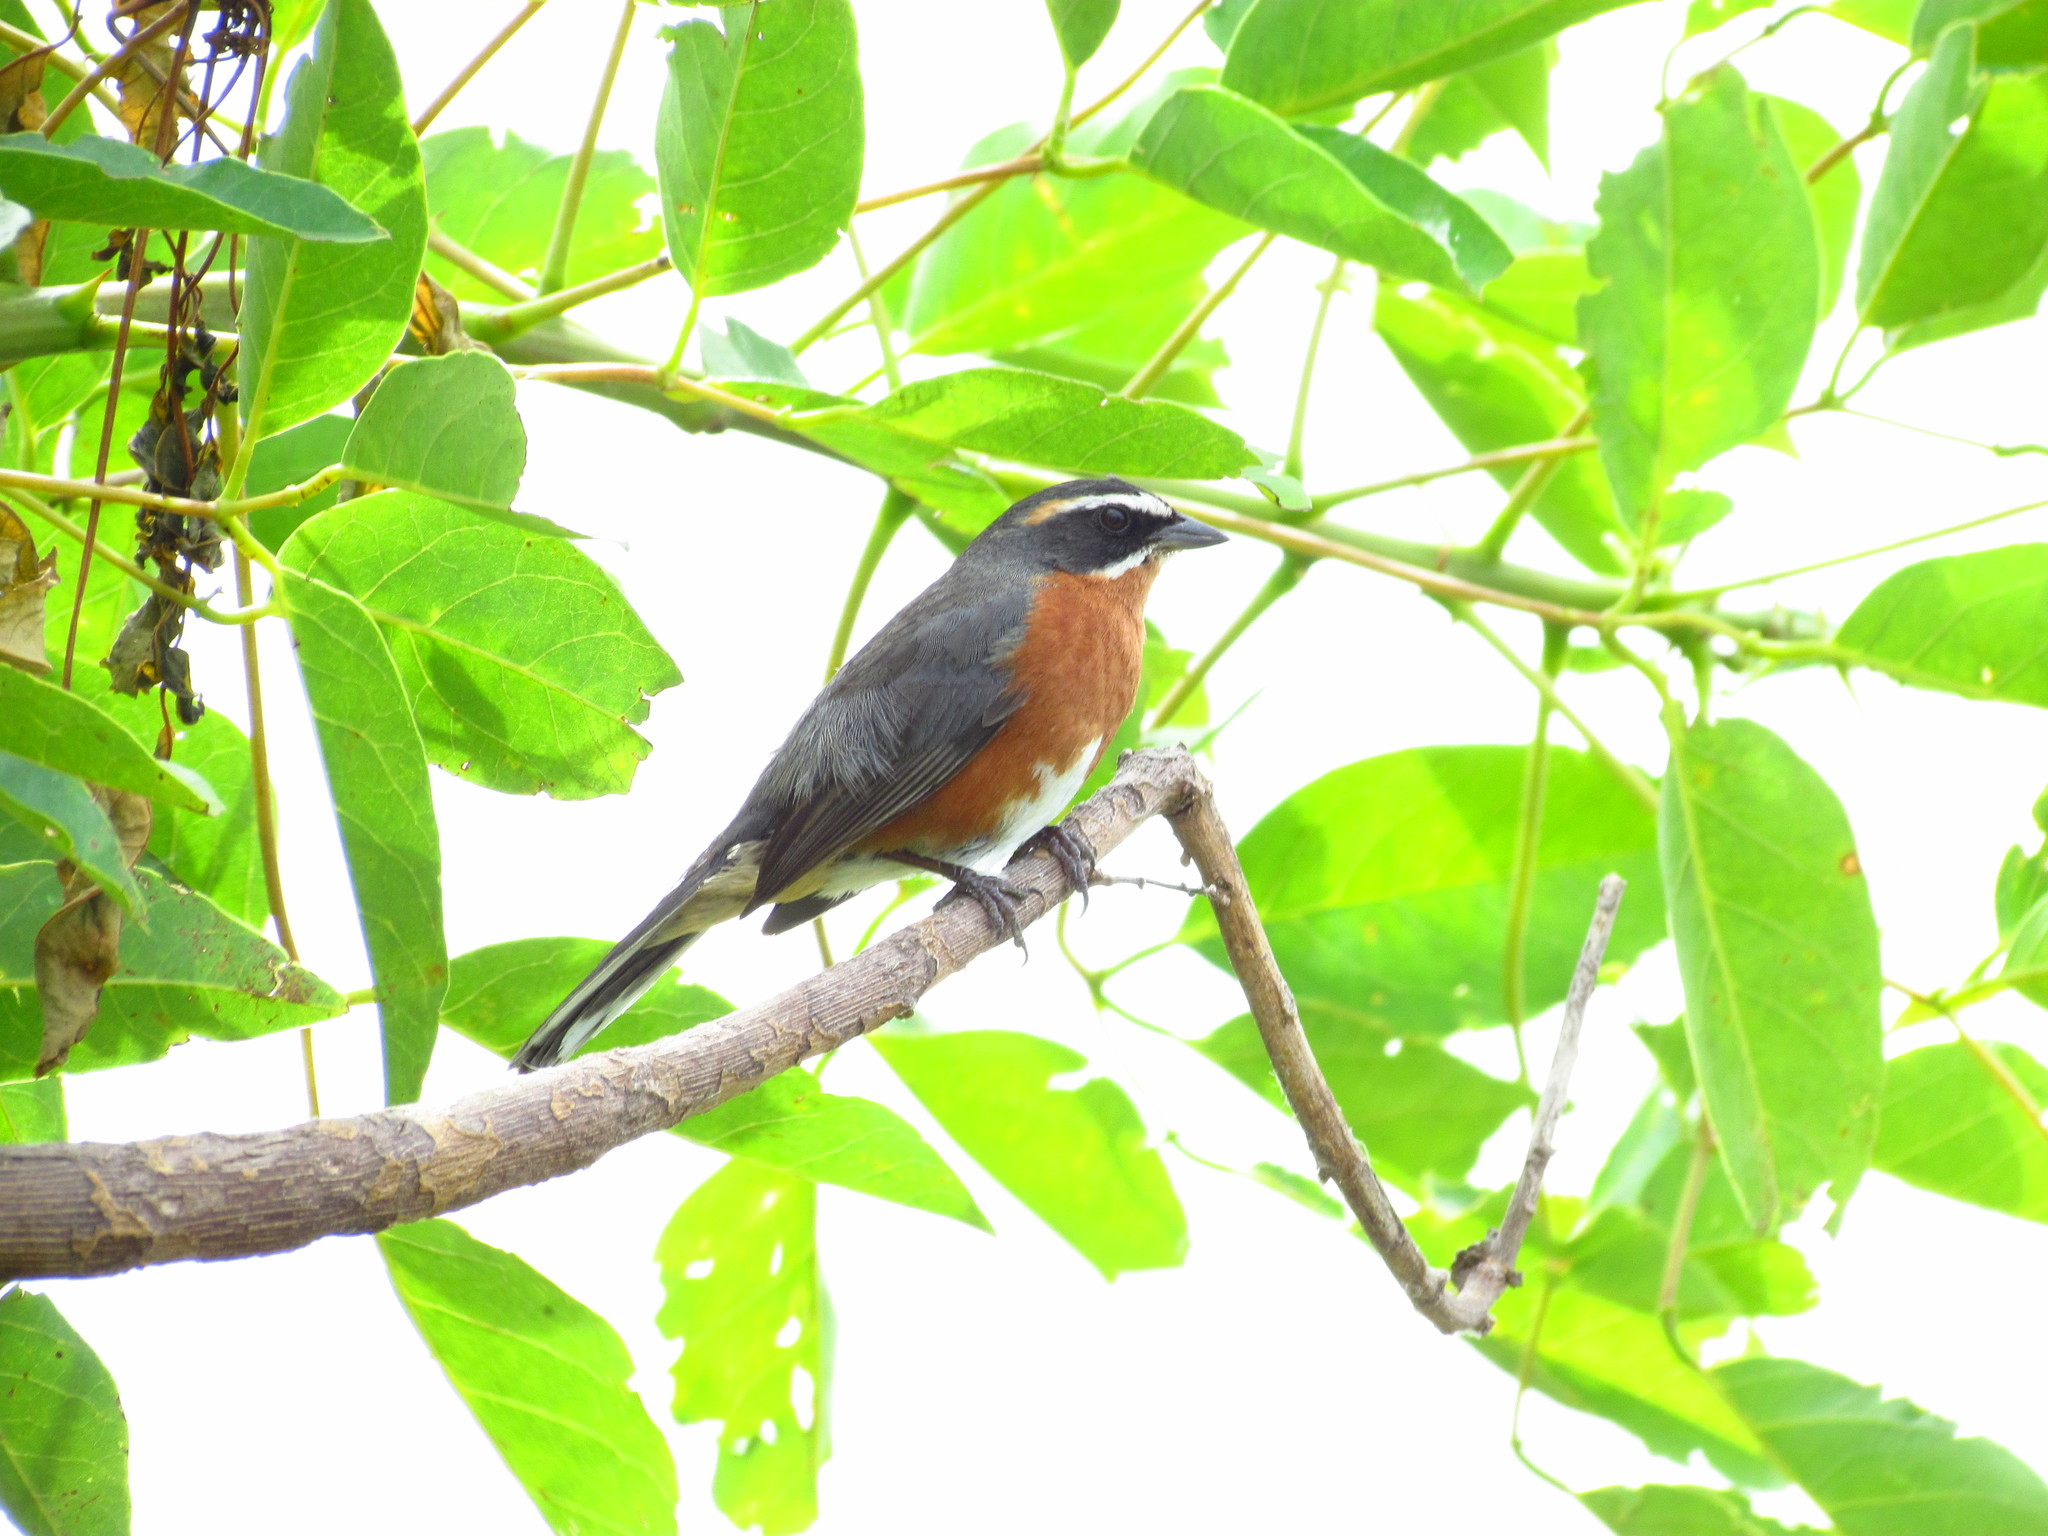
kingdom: Animalia
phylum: Chordata
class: Aves
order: Passeriformes
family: Thraupidae
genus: Poospiza
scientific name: Poospiza nigrorufa
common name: Black-and-rufous warbling finch
